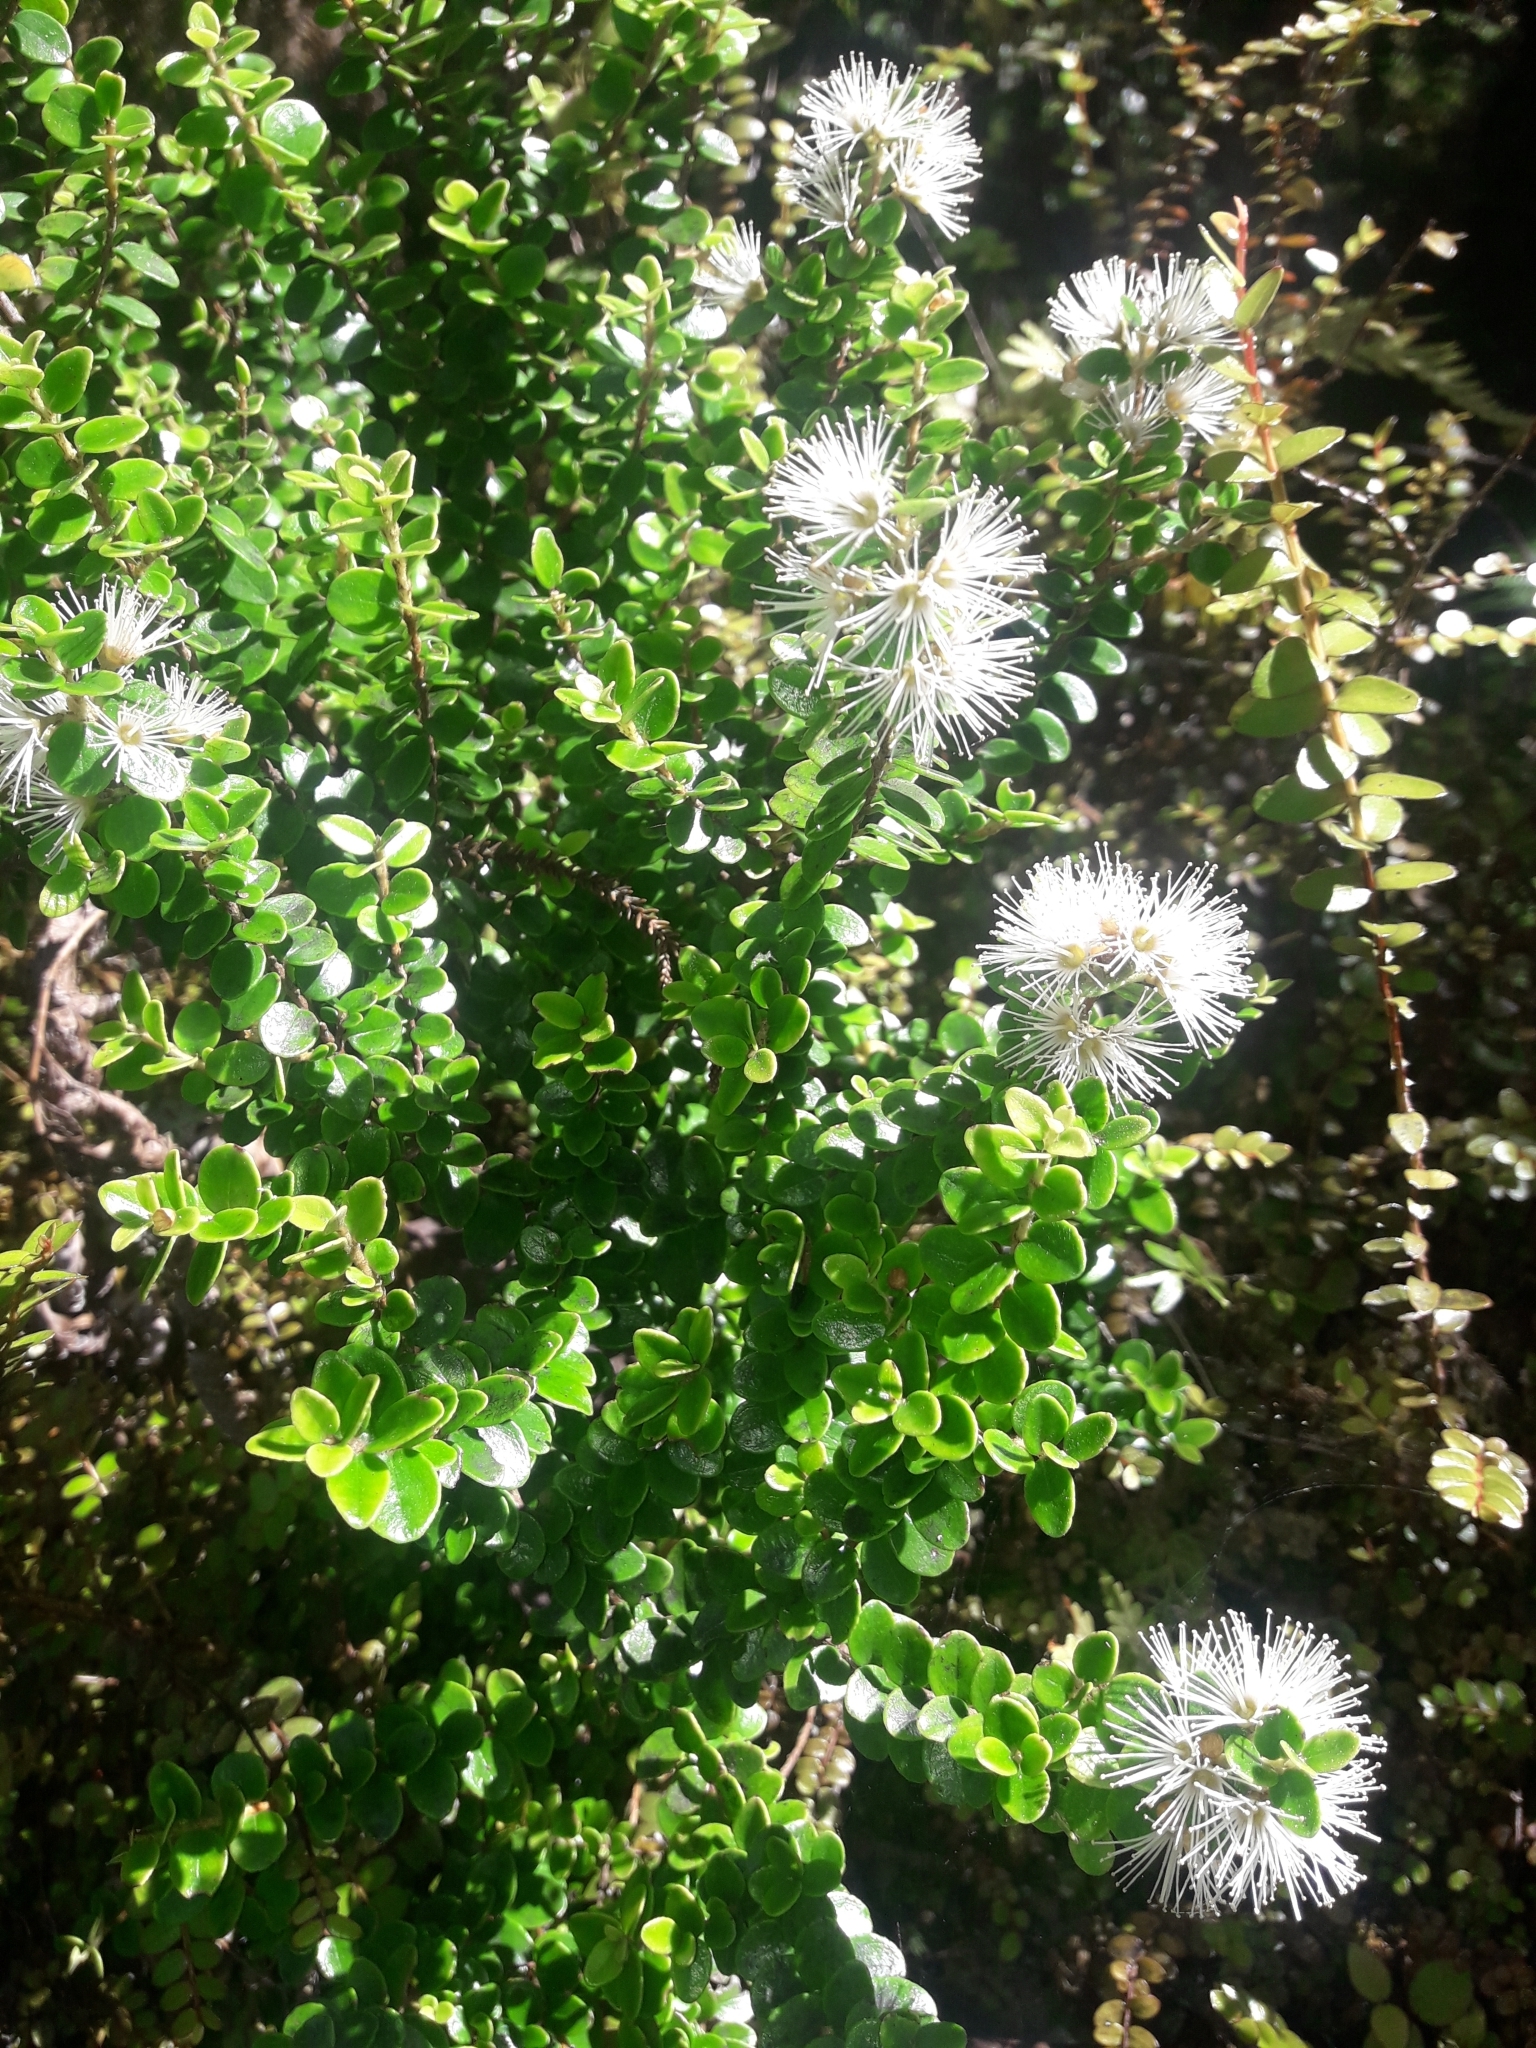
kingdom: Plantae
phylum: Tracheophyta
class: Magnoliopsida
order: Myrtales
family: Myrtaceae
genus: Metrosideros
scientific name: Metrosideros perforata
